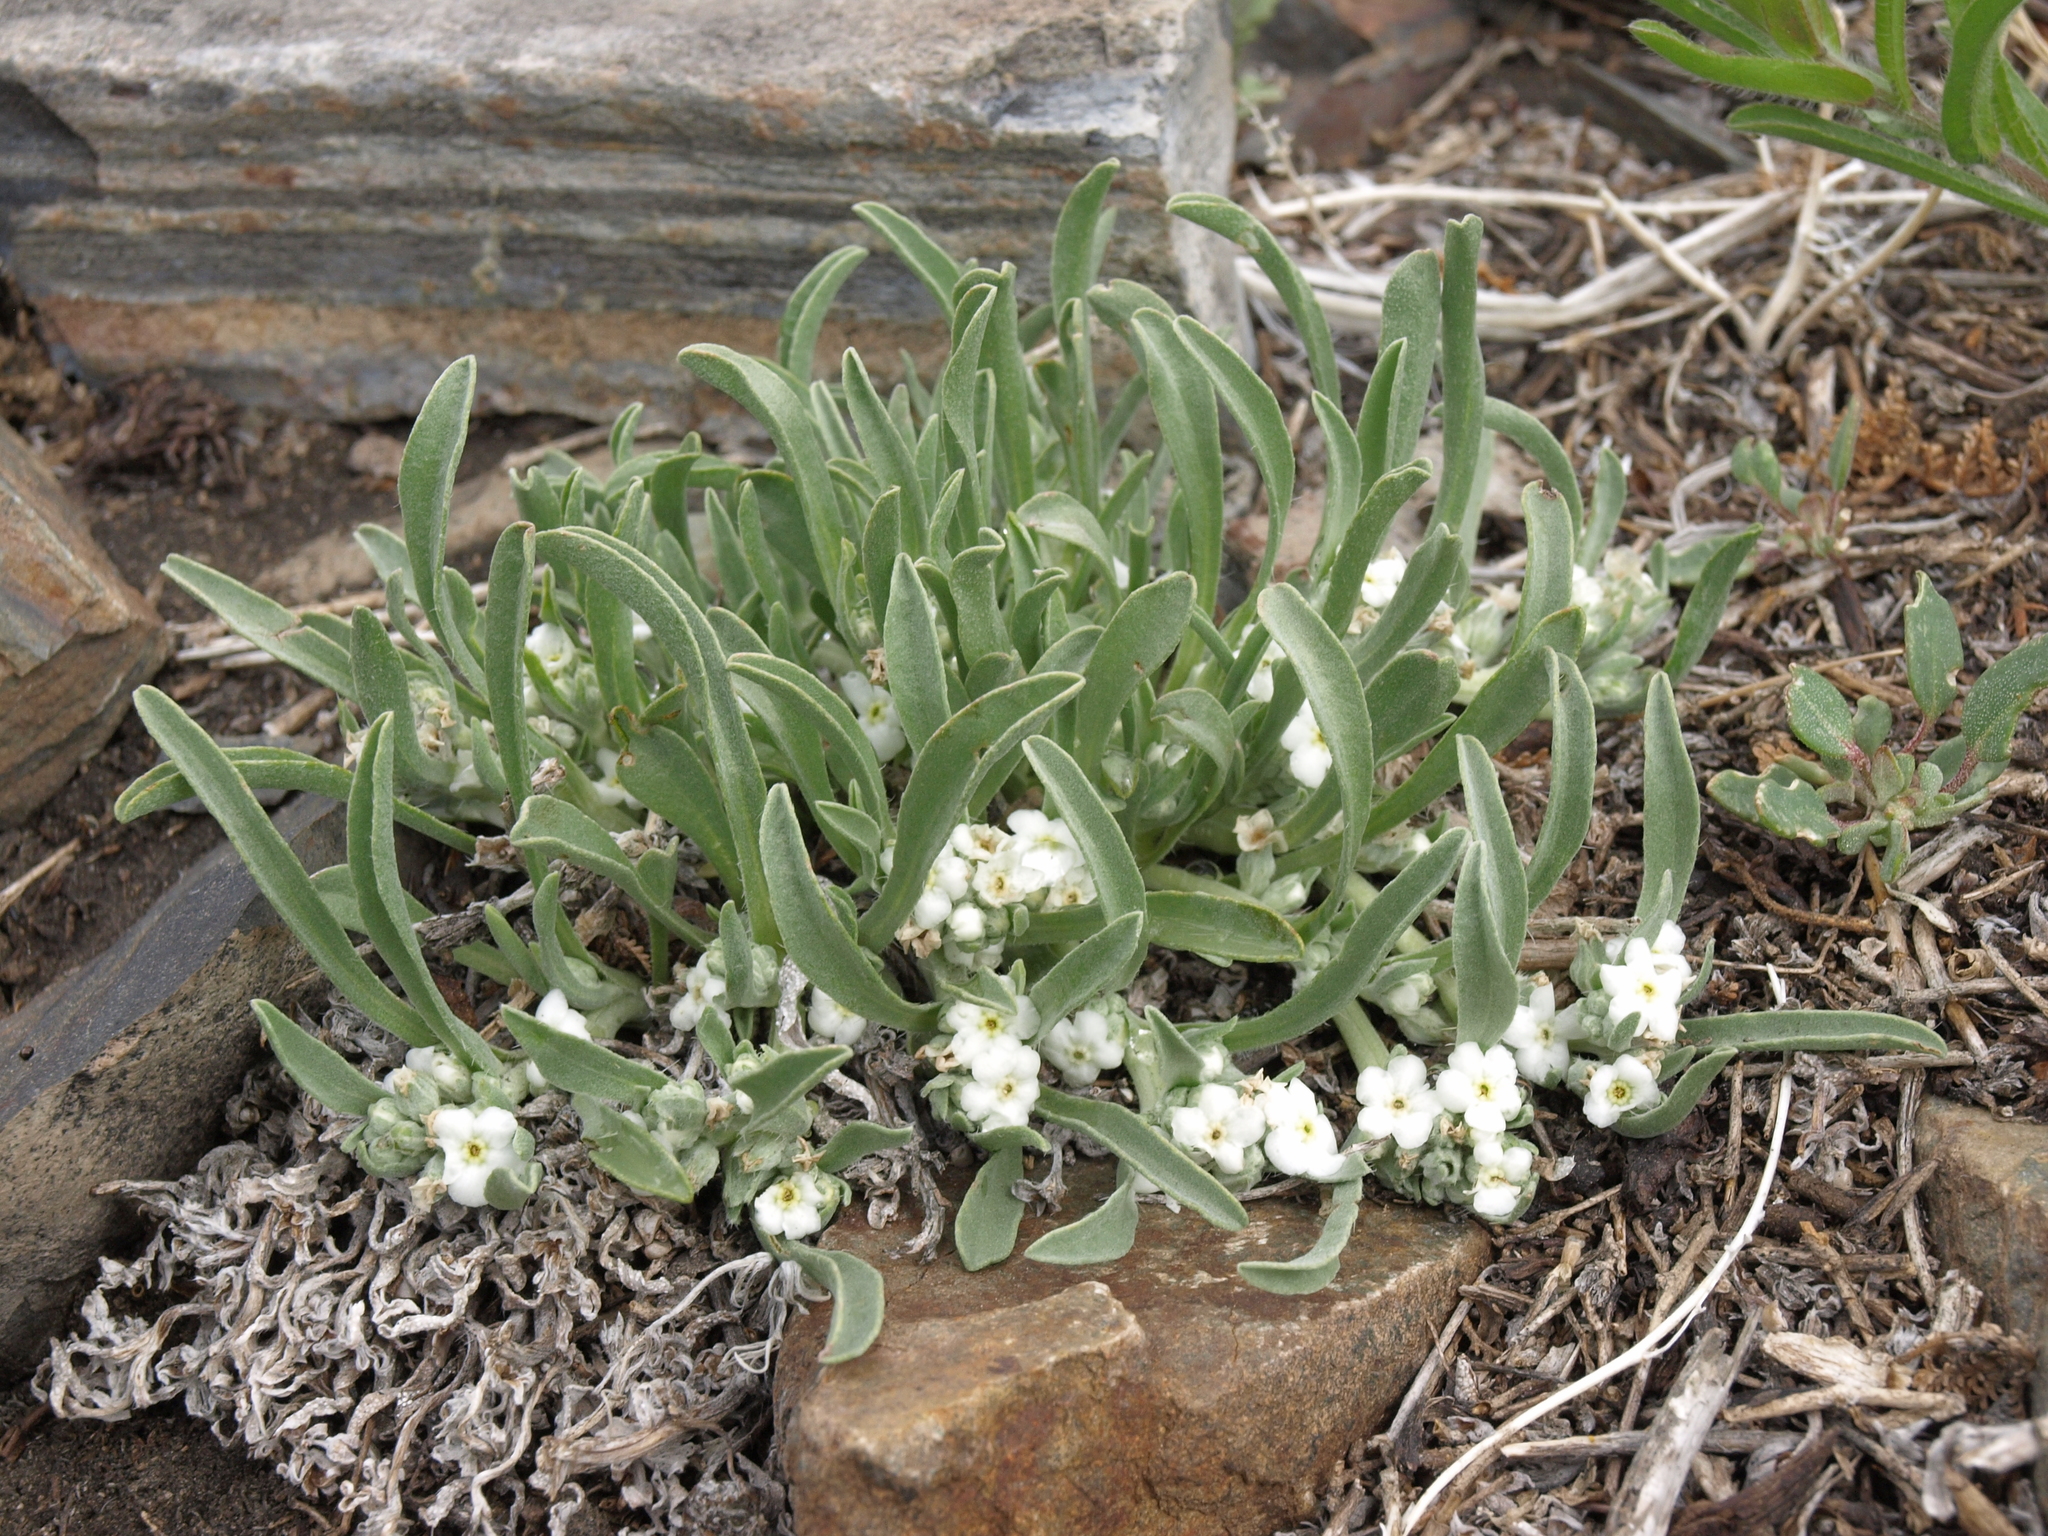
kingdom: Plantae
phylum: Tracheophyta
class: Magnoliopsida
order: Boraginales
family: Boraginaceae
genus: Oreocarya
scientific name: Oreocarya abortiva
